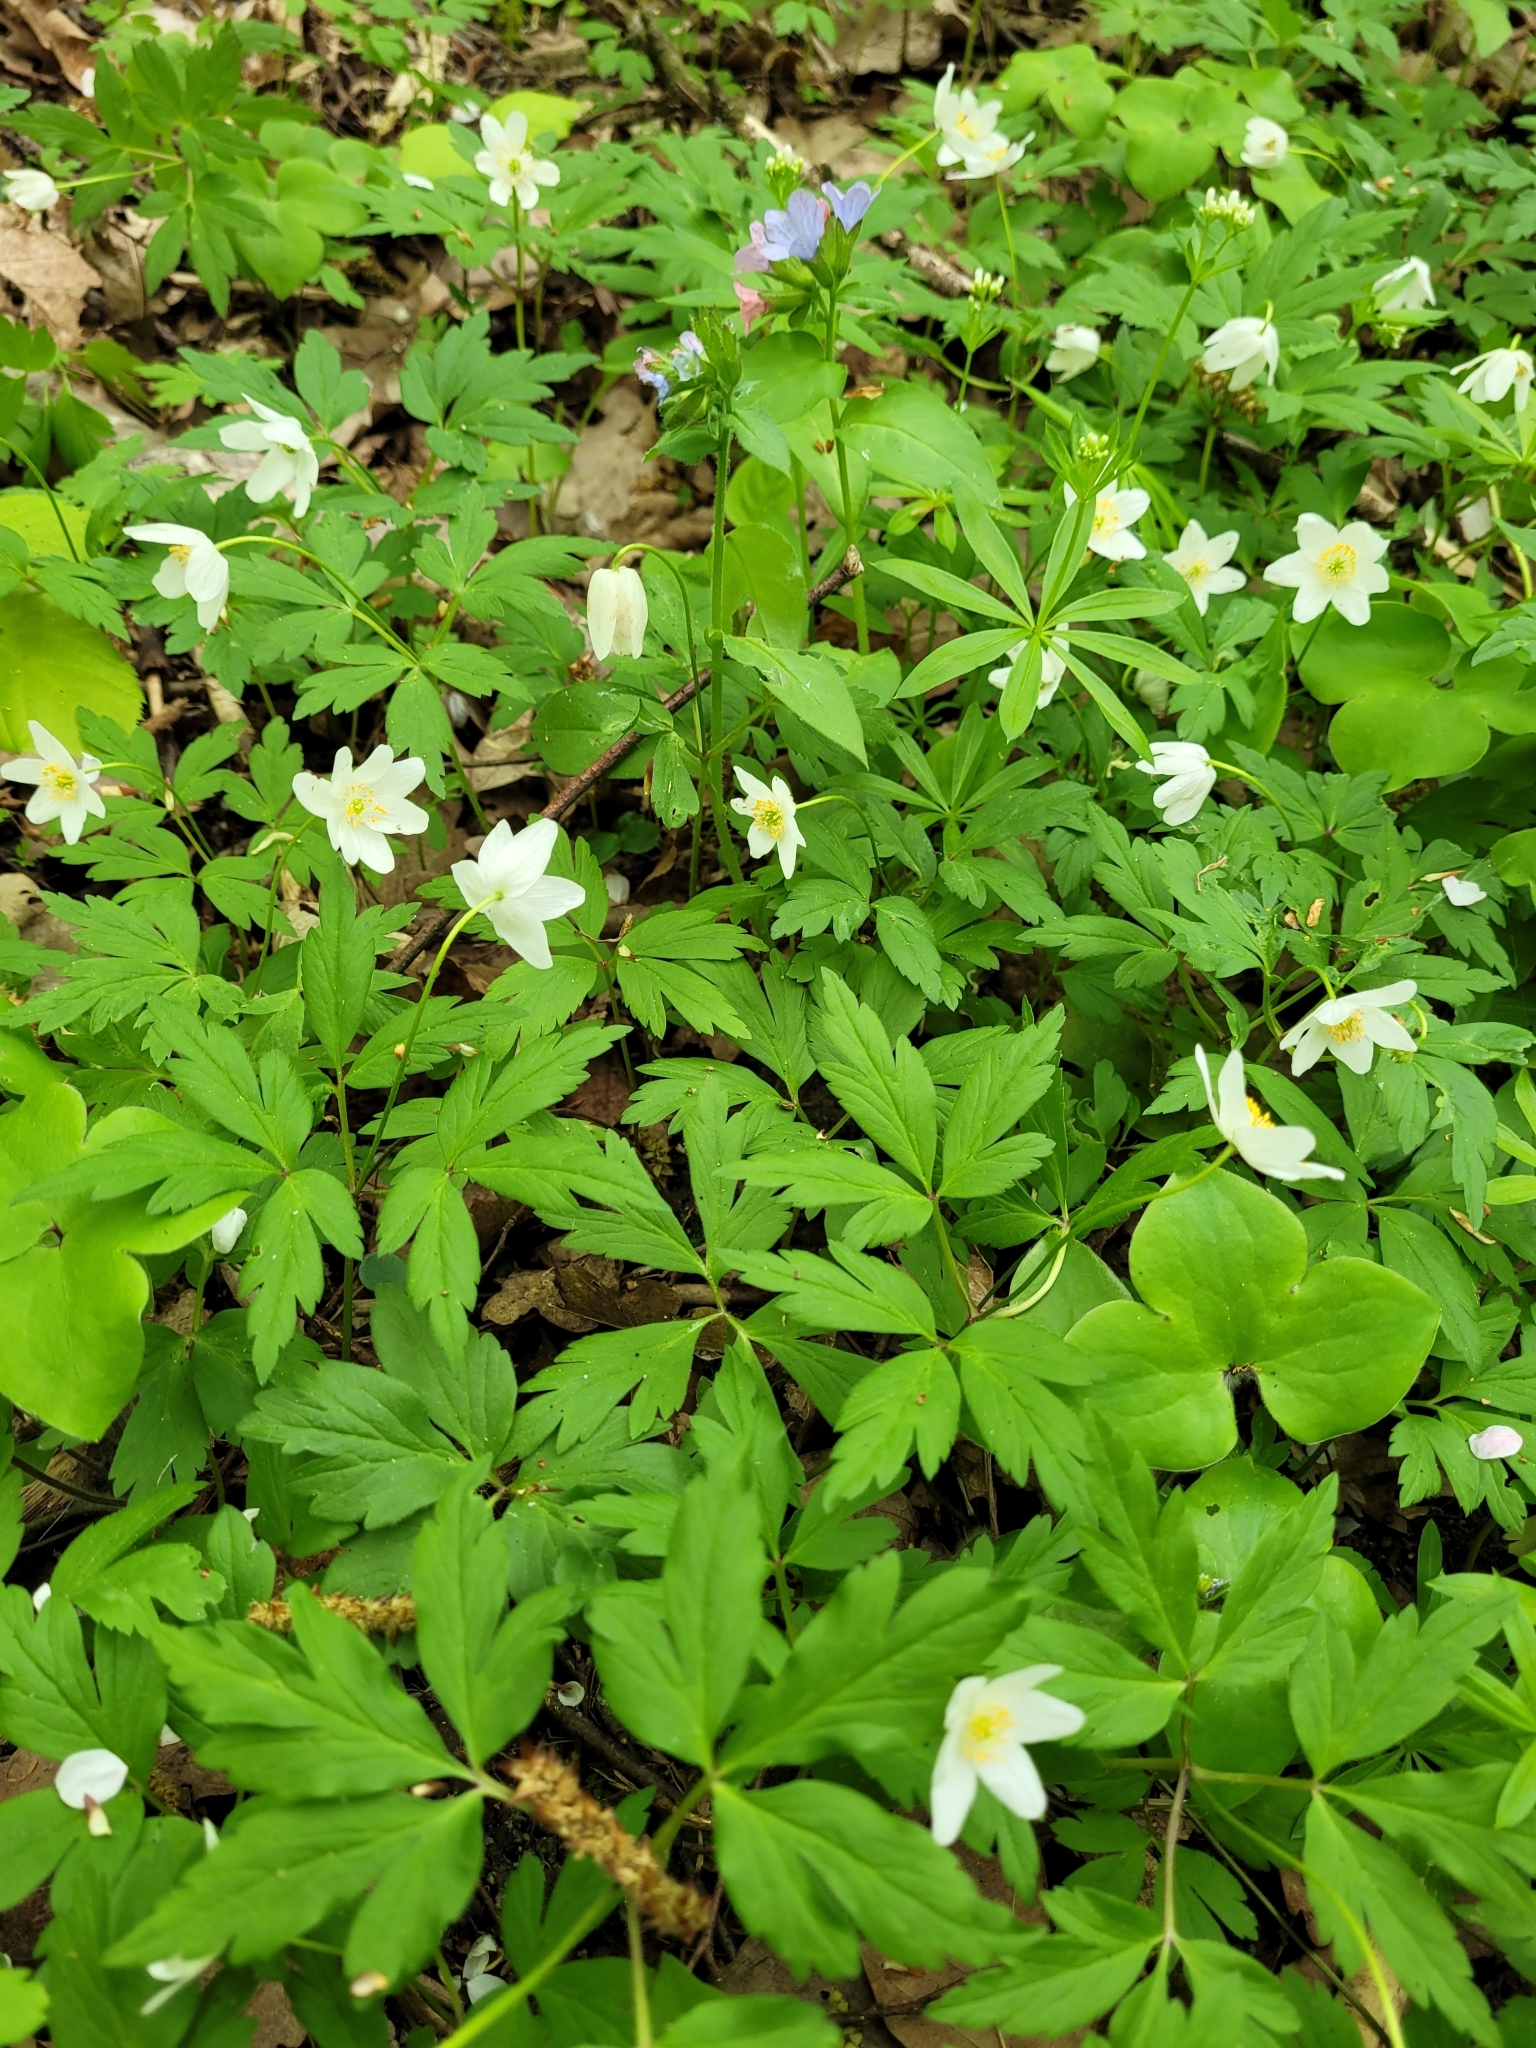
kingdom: Plantae
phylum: Tracheophyta
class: Magnoliopsida
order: Ranunculales
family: Ranunculaceae
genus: Anemone
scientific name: Anemone nemorosa
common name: Wood anemone
